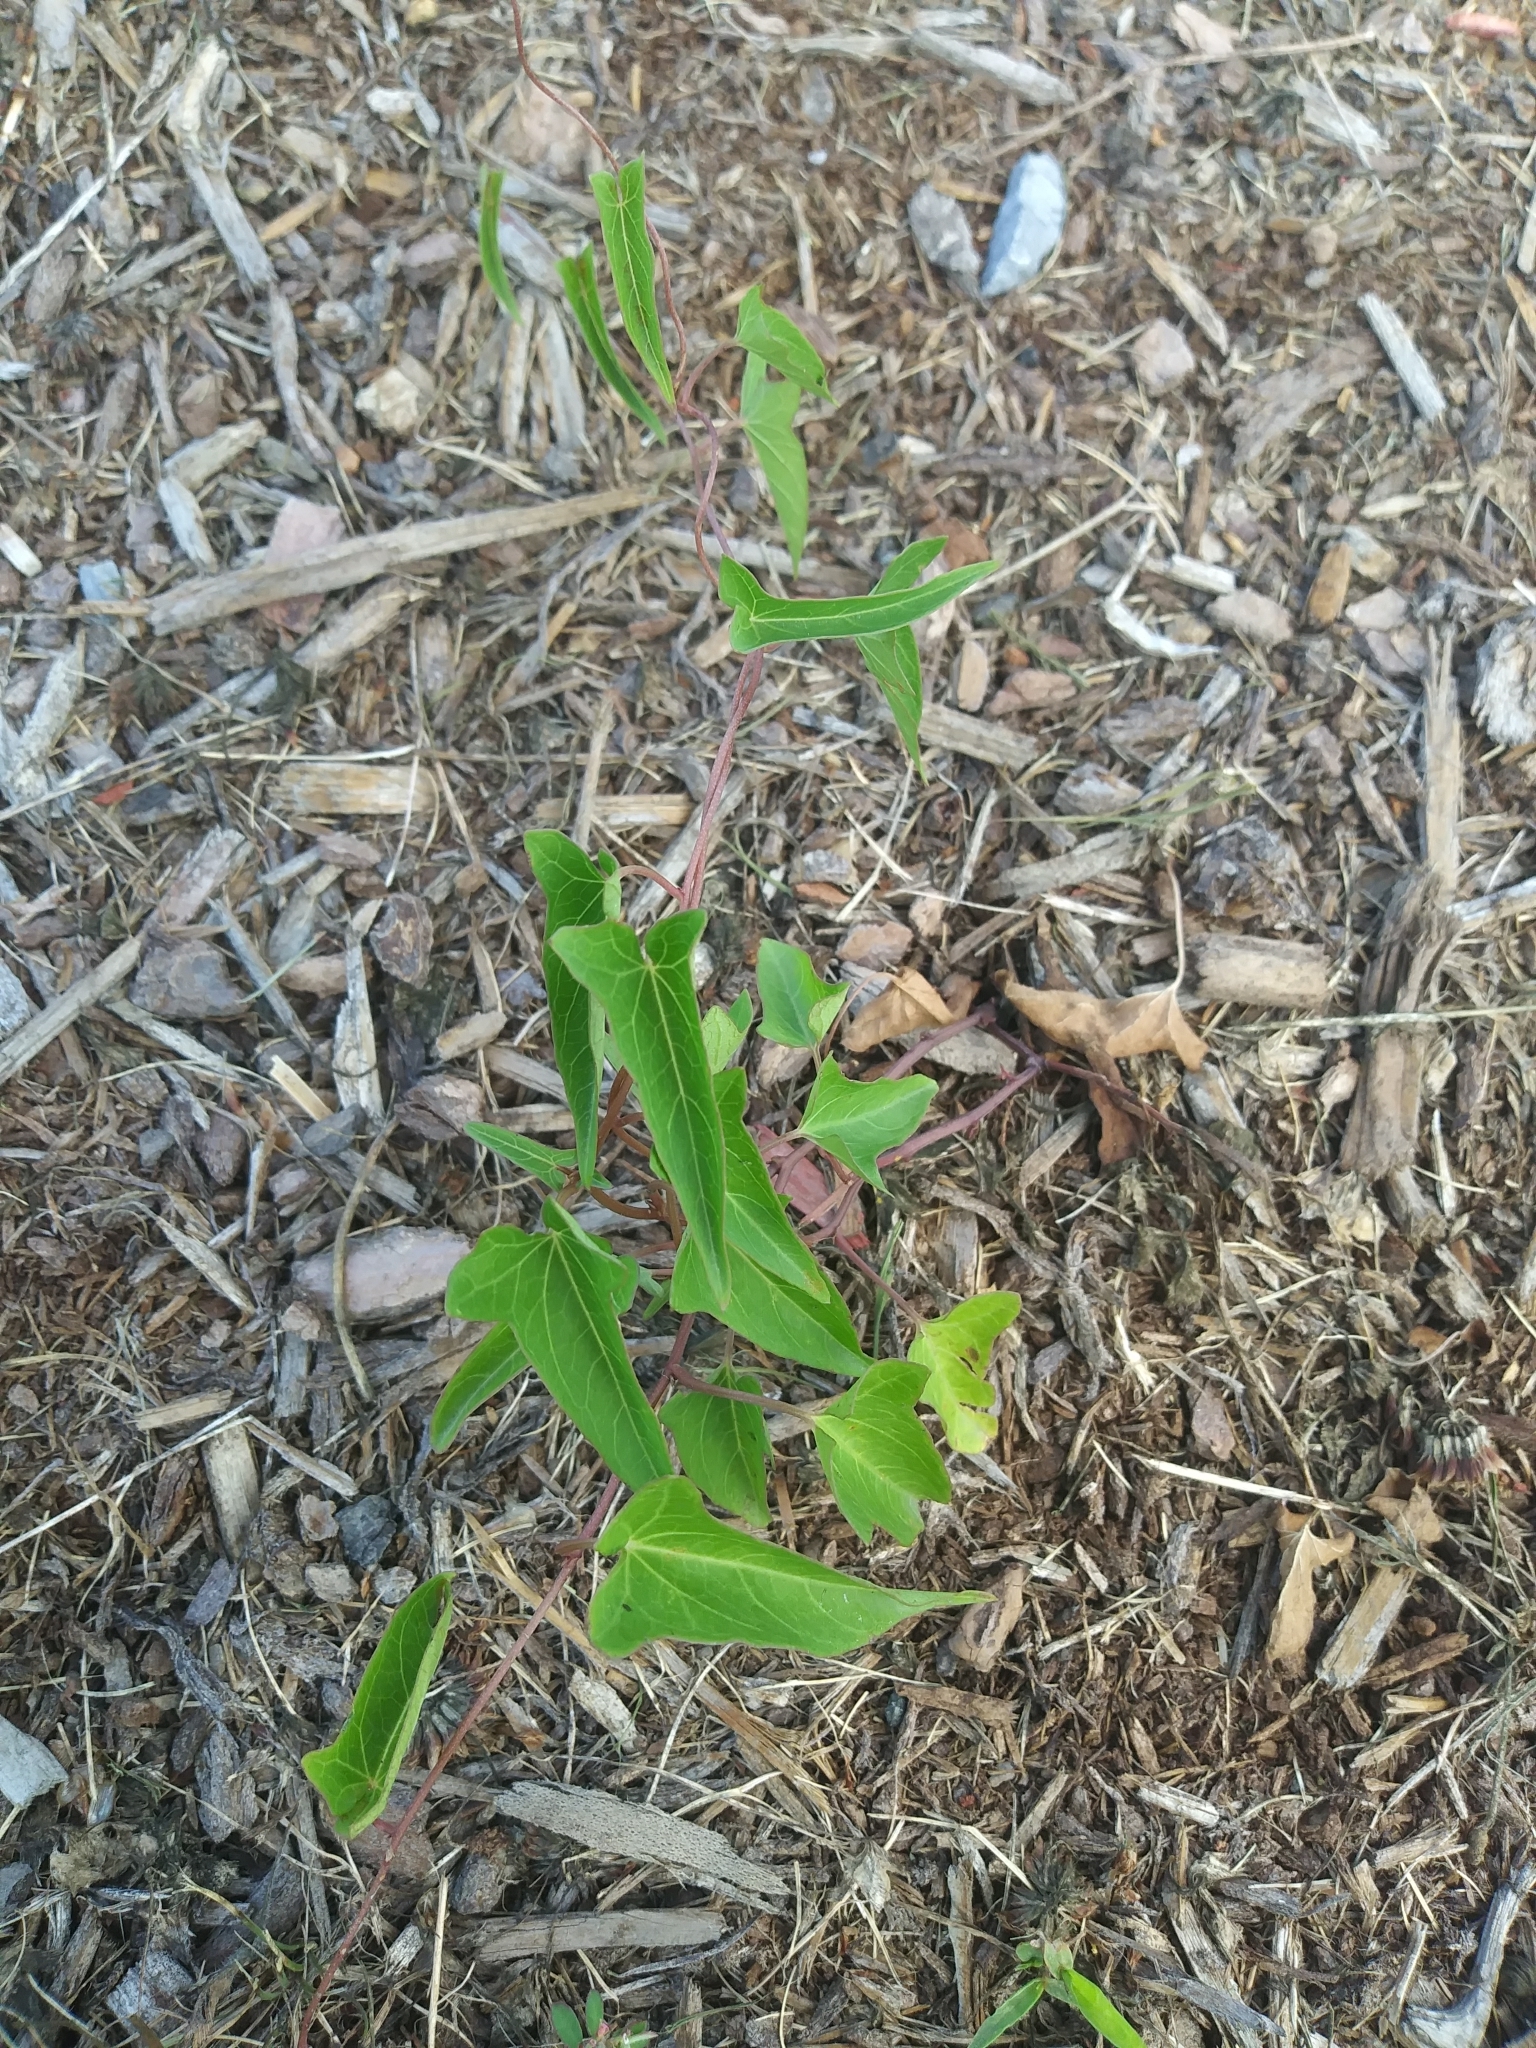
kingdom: Plantae
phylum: Tracheophyta
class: Magnoliopsida
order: Solanales
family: Convolvulaceae
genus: Calystegia
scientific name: Calystegia sepium
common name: Hedge bindweed
